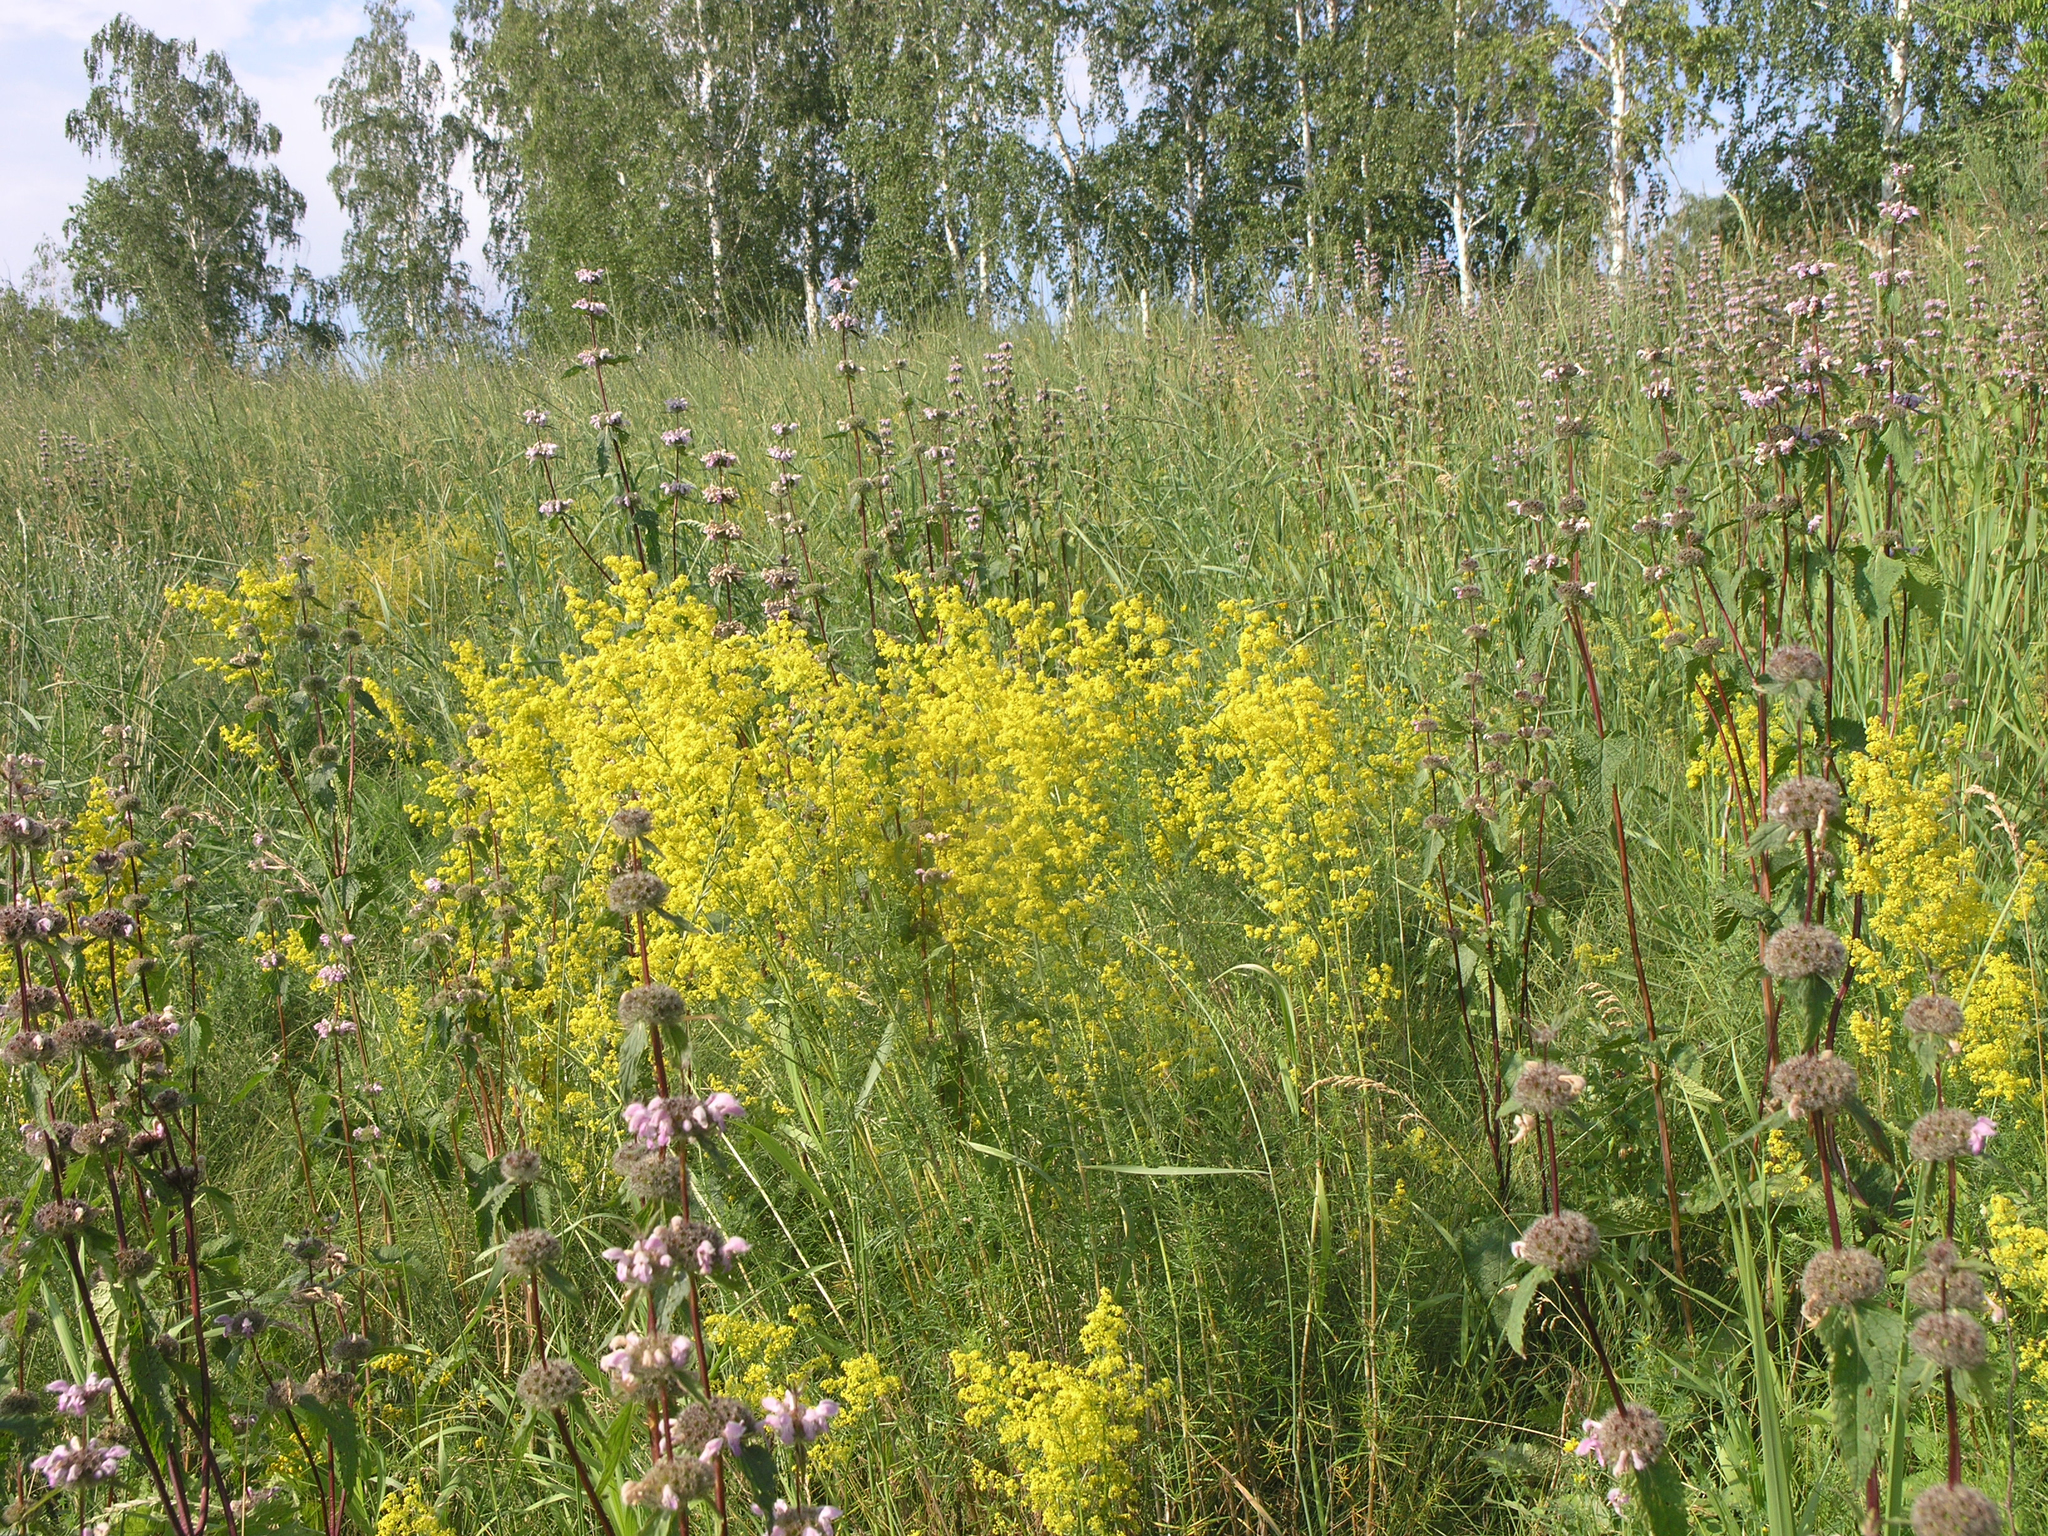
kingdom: Plantae
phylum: Tracheophyta
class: Magnoliopsida
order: Lamiales
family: Lamiaceae
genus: Phlomoides
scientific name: Phlomoides tuberosa
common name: Tuberous jerusalem sage
